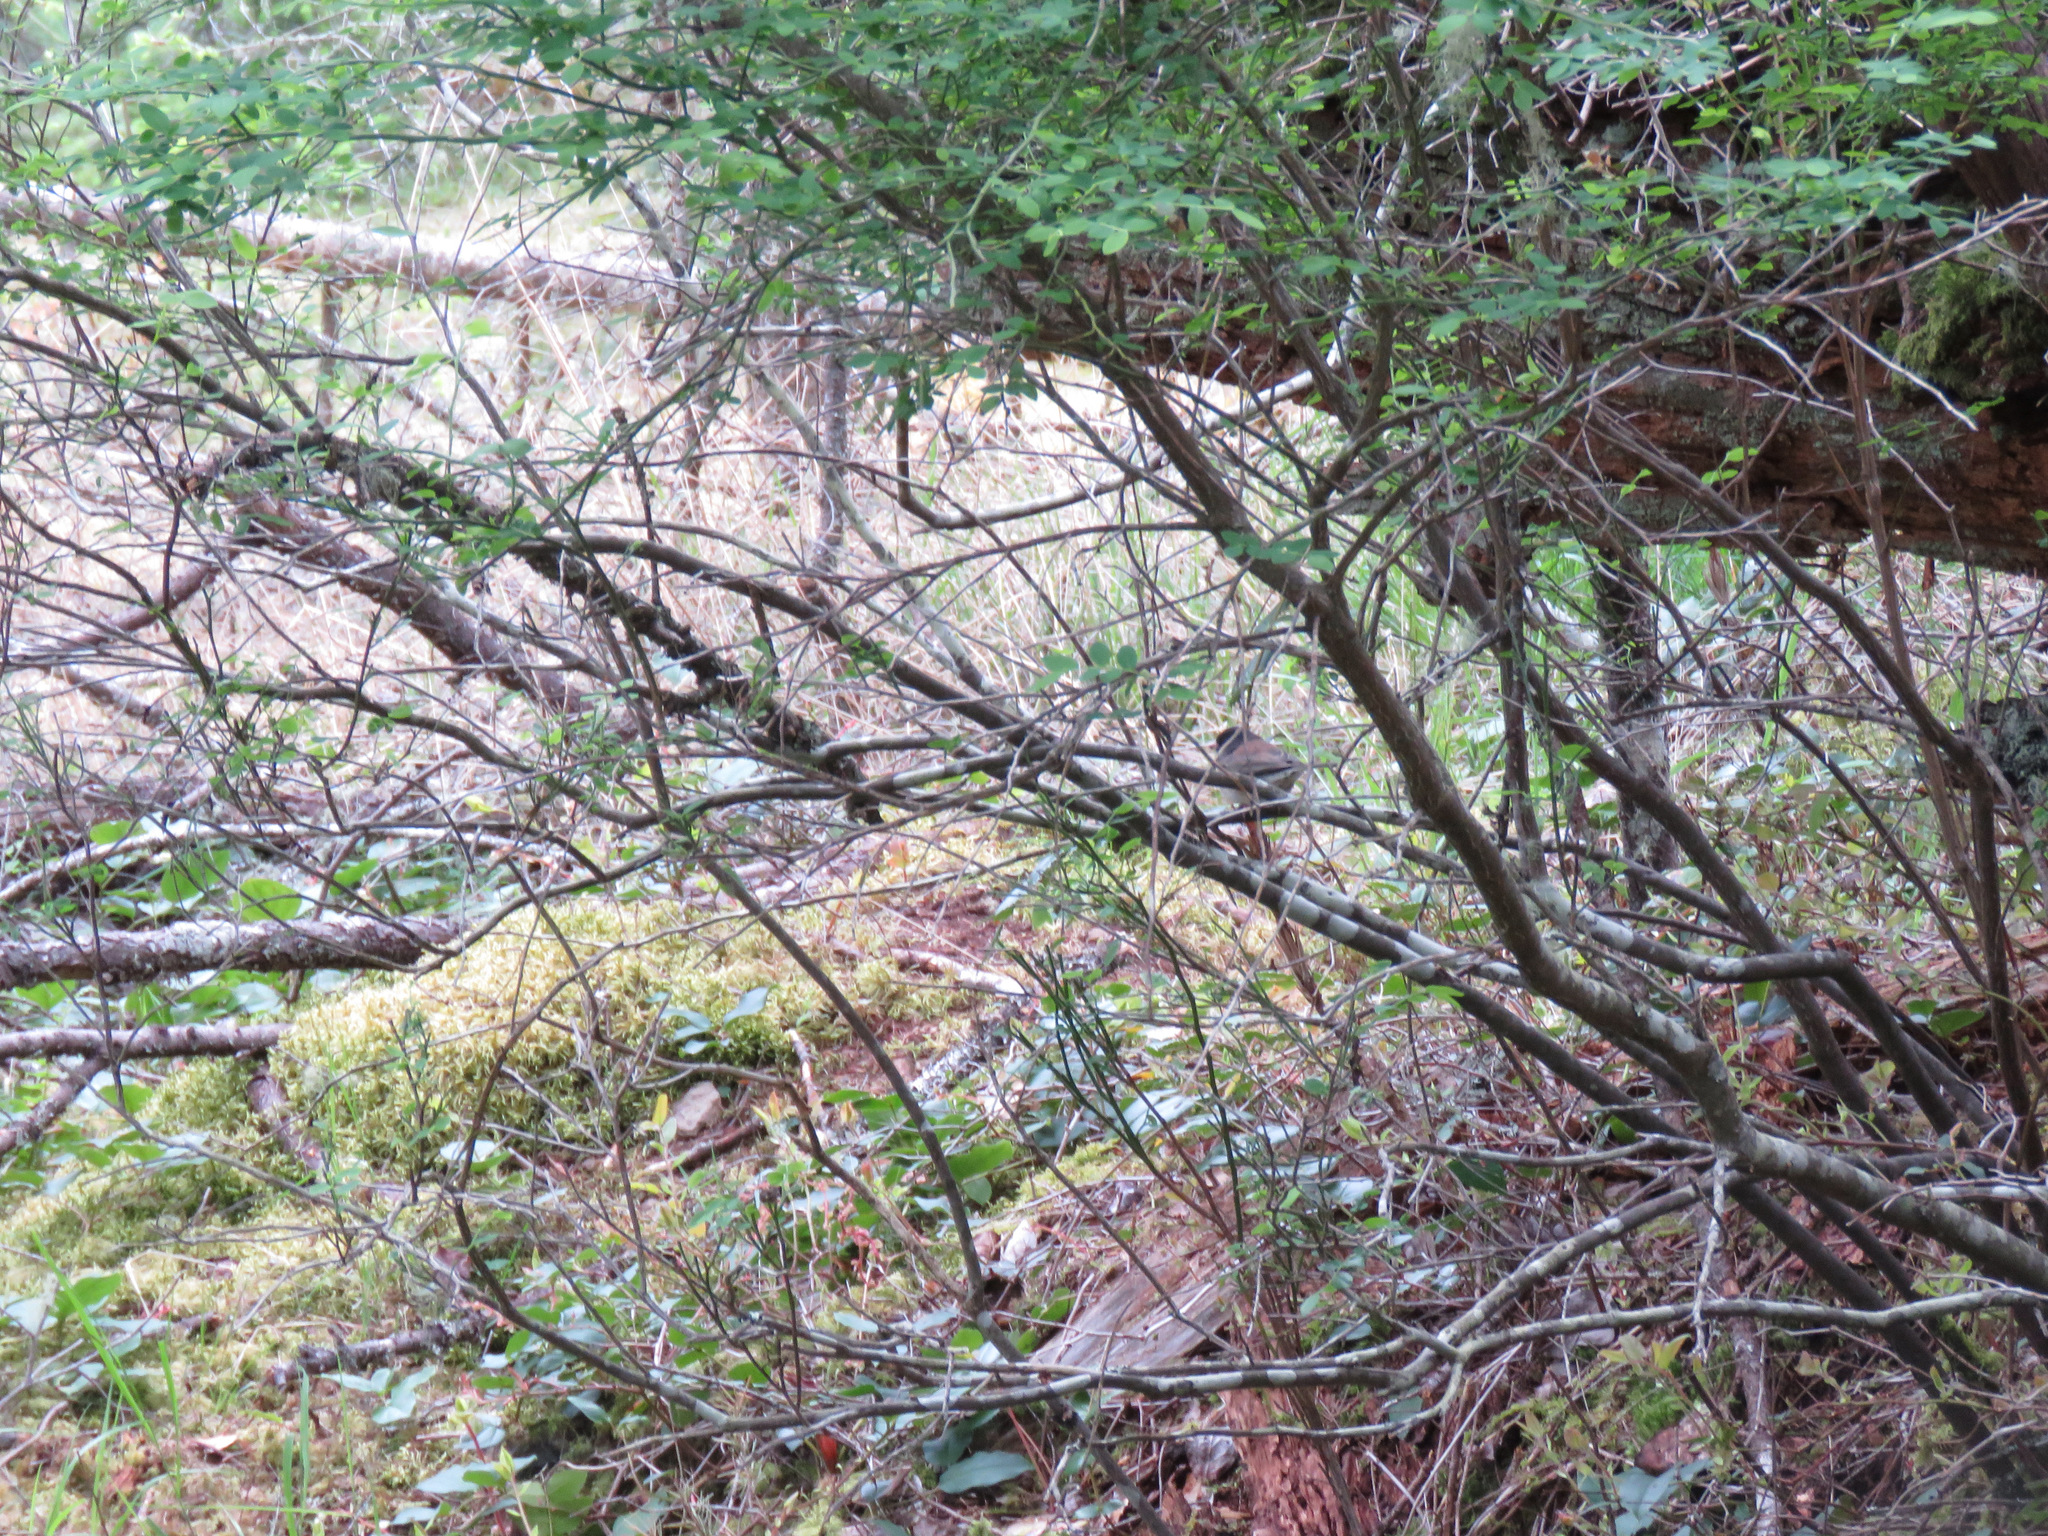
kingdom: Animalia
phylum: Chordata
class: Aves
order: Passeriformes
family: Passerellidae
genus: Junco
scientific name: Junco hyemalis
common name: Dark-eyed junco
